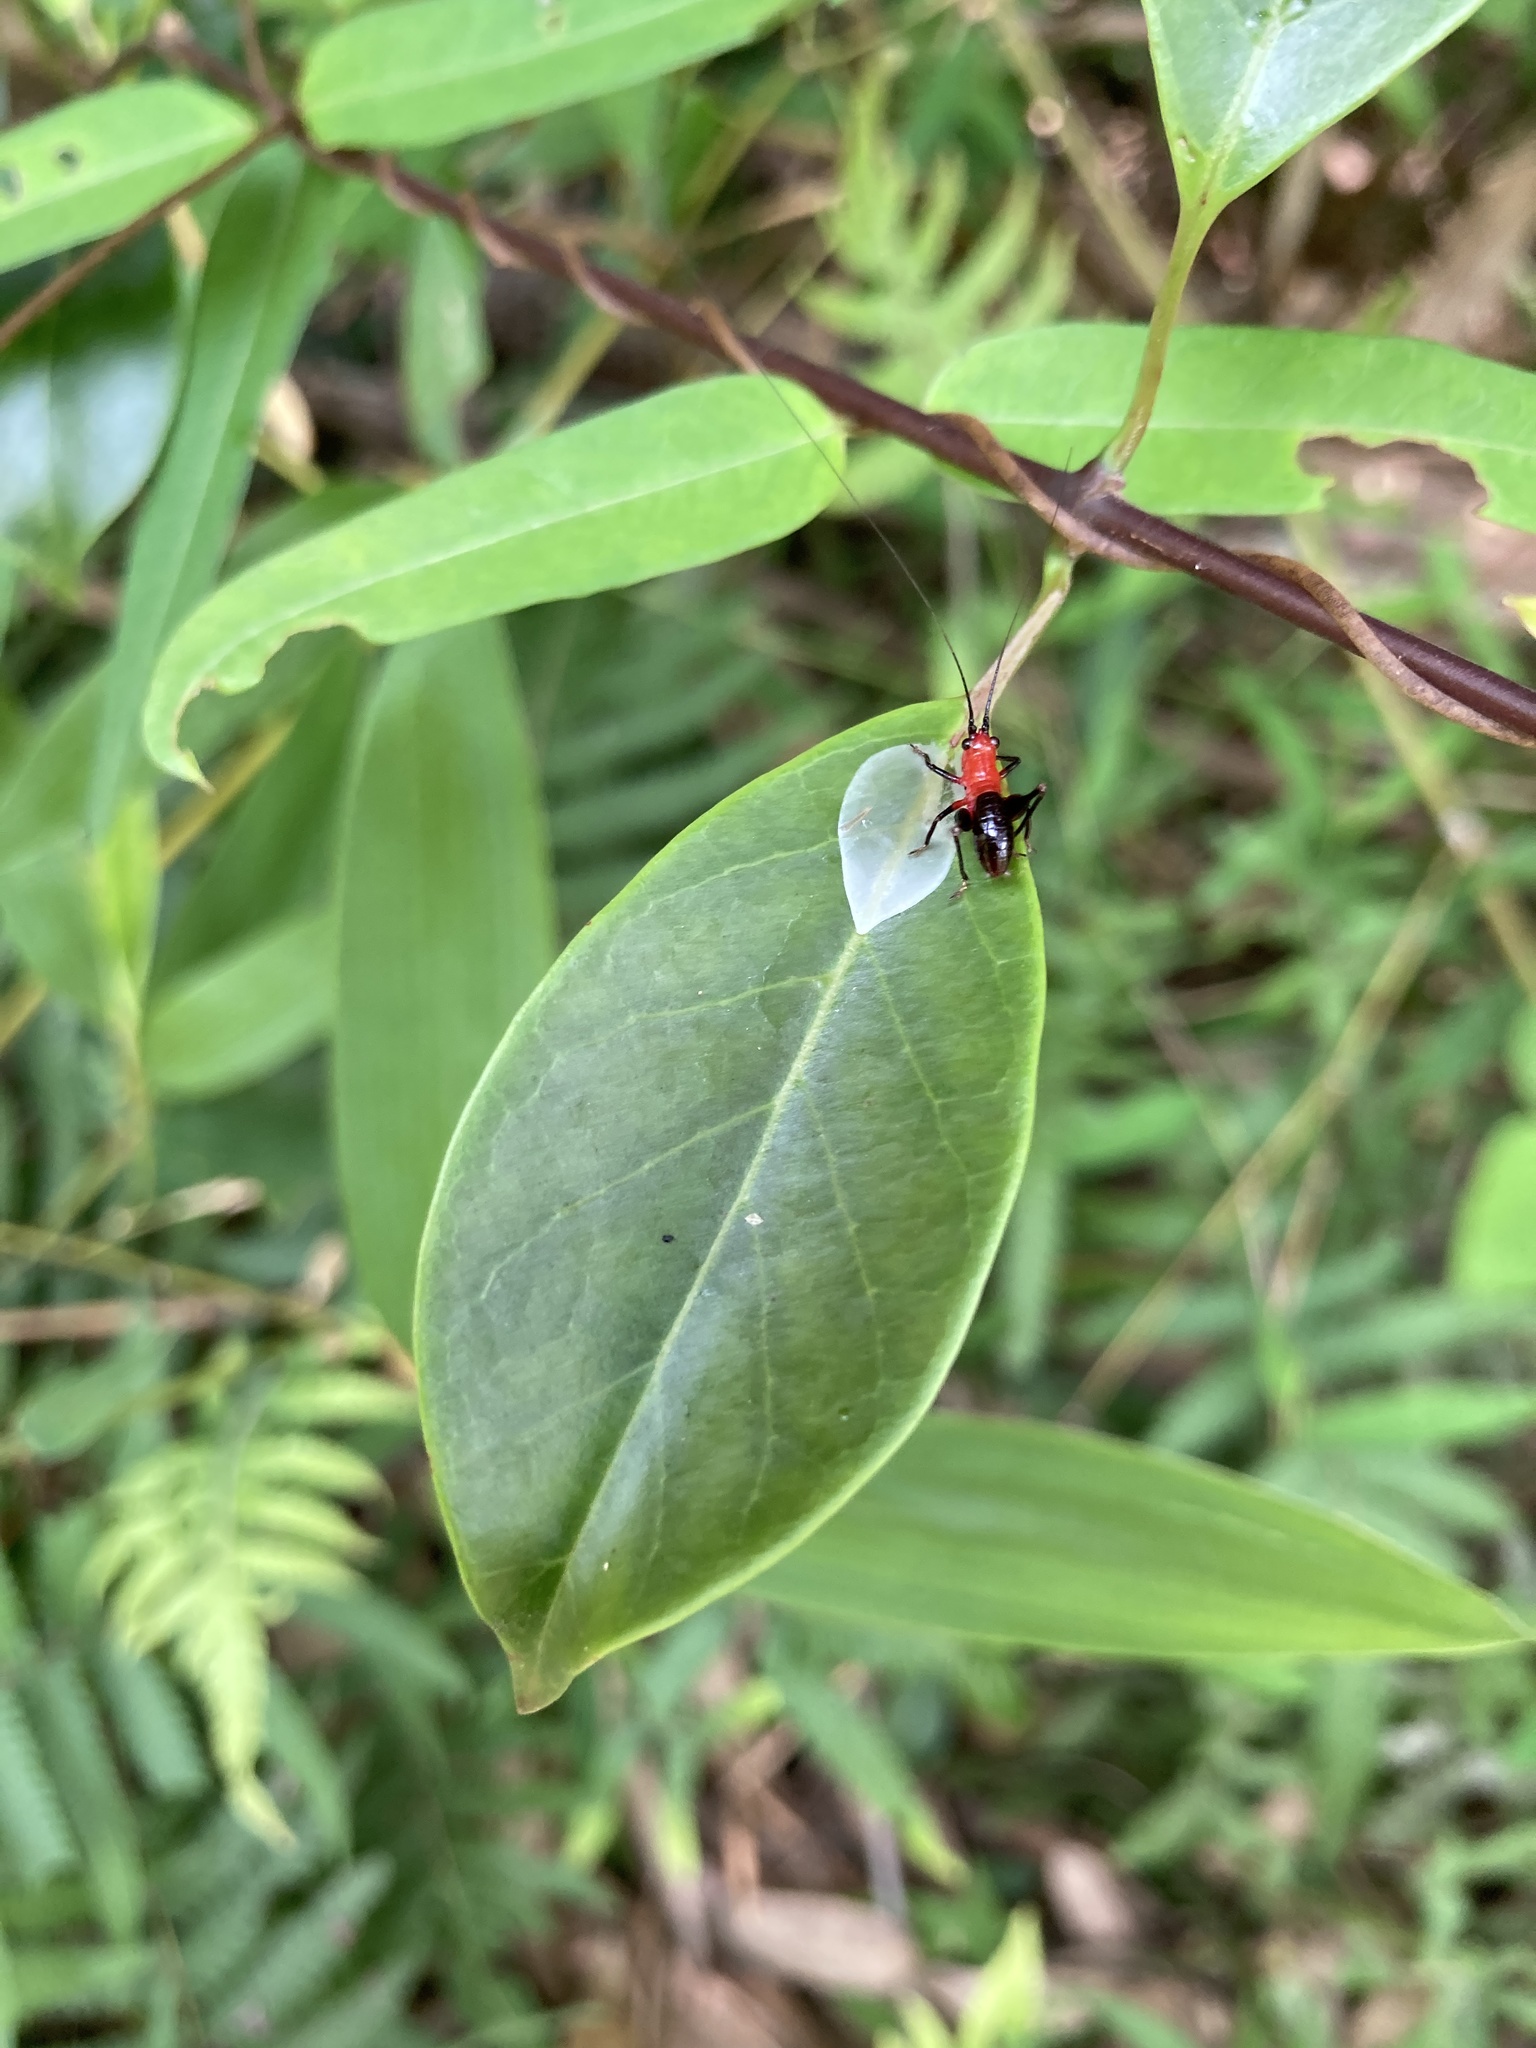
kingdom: Animalia
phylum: Arthropoda
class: Insecta
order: Orthoptera
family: Tettigoniidae
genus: Conocephalus
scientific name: Conocephalus melaenus
